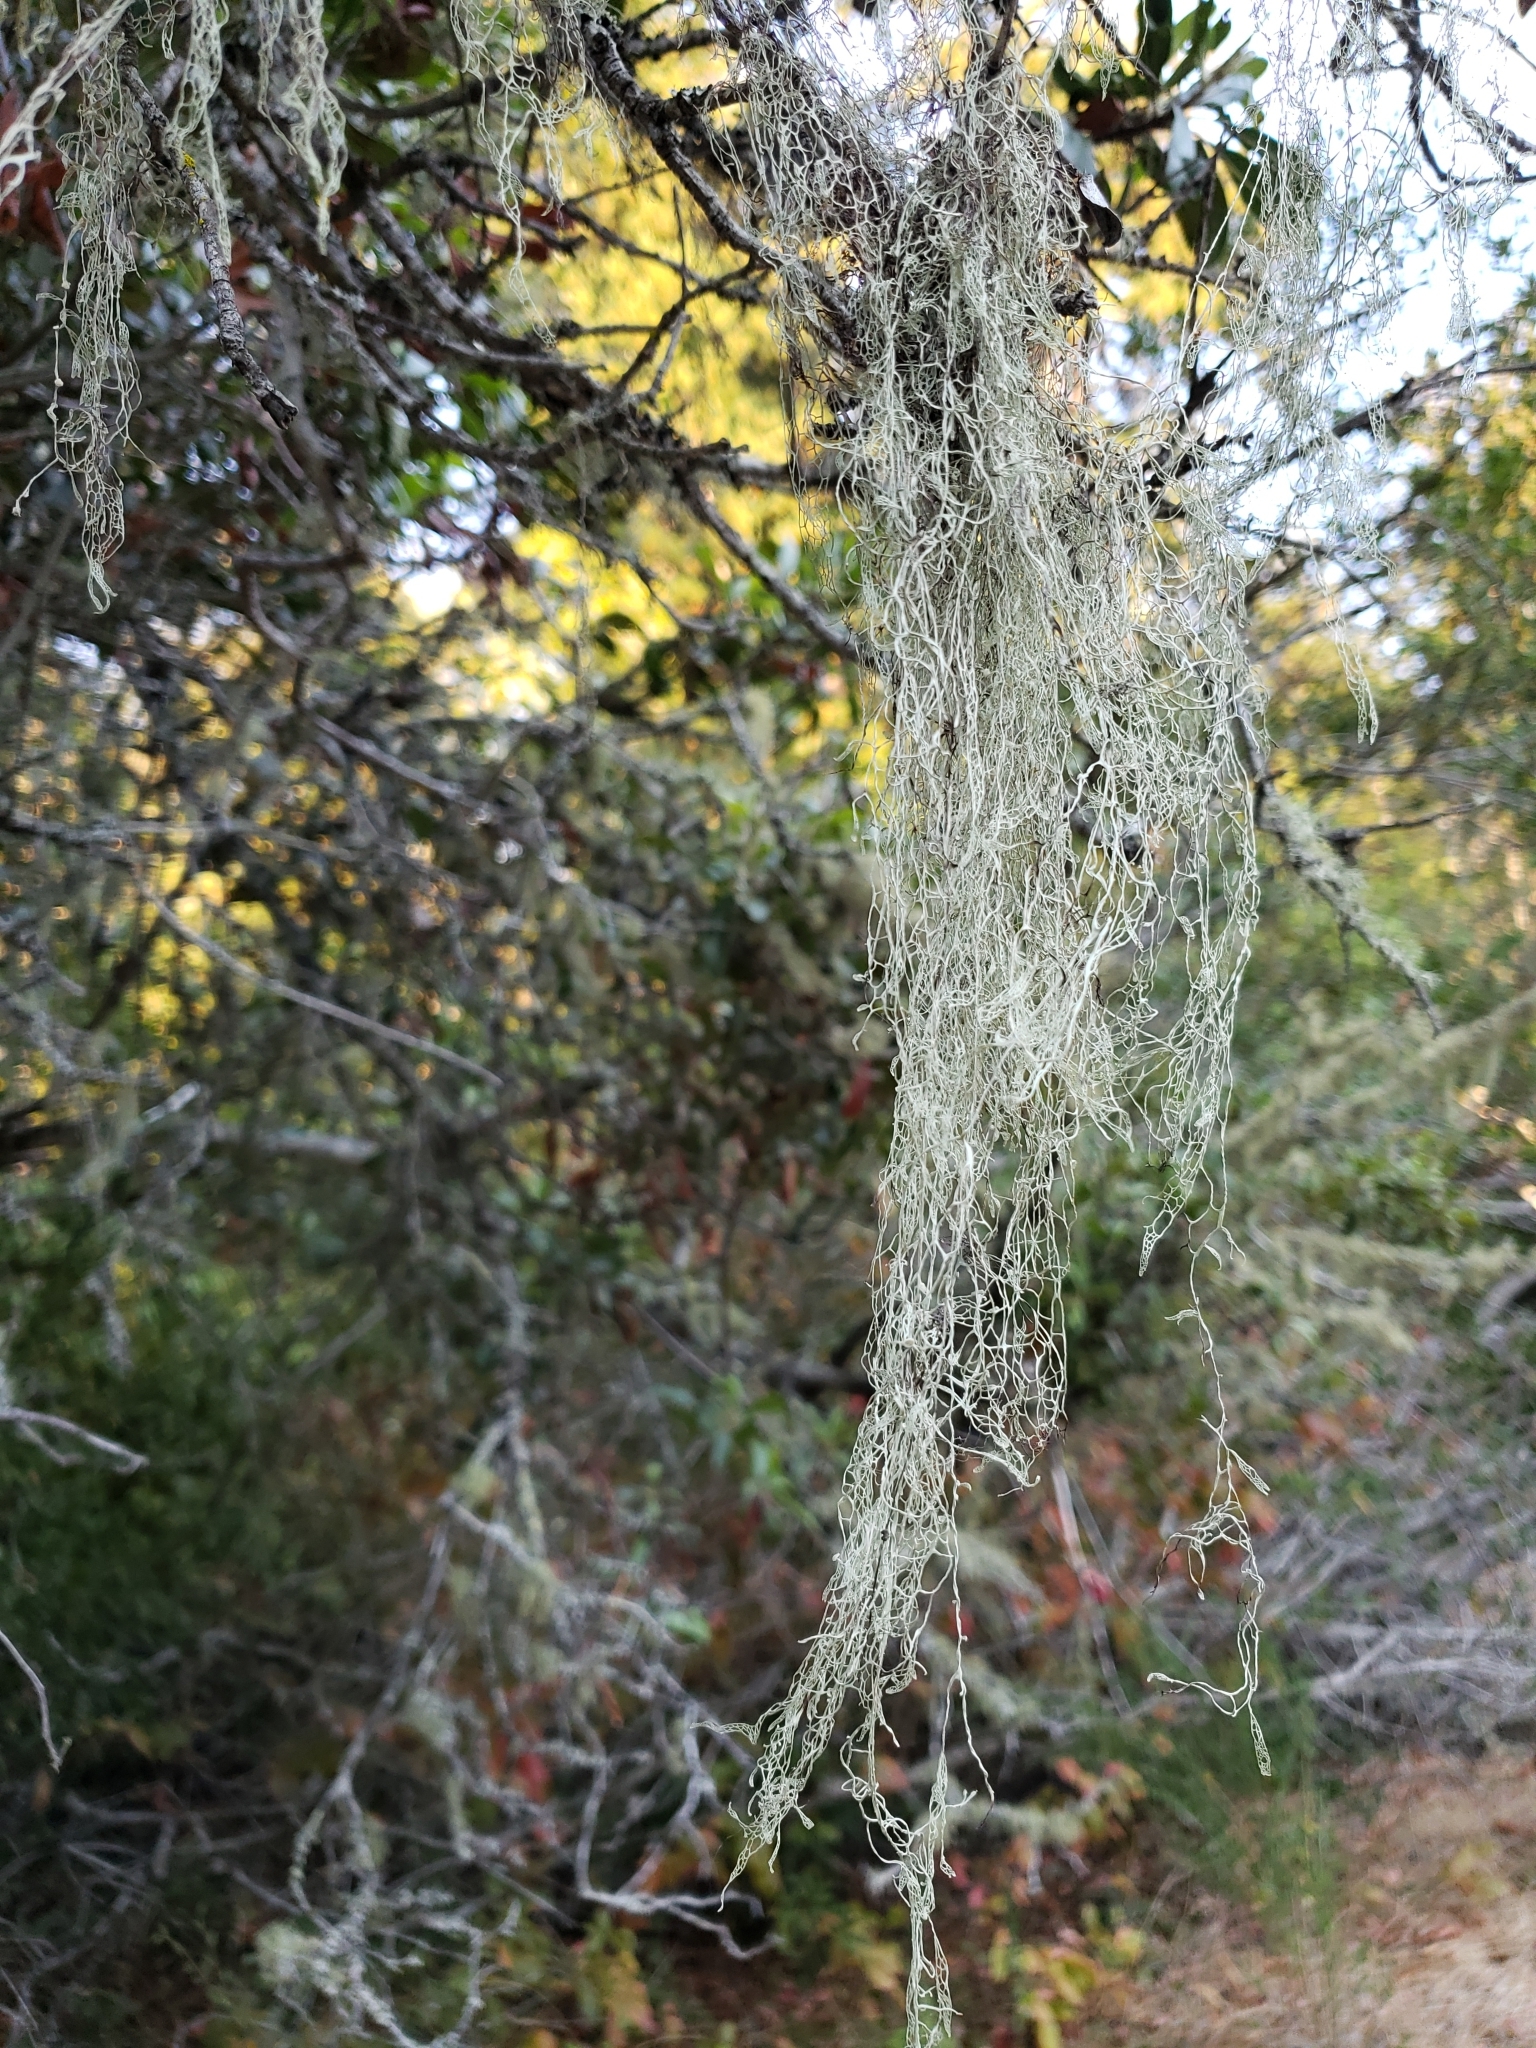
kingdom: Fungi
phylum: Ascomycota
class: Lecanoromycetes
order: Lecanorales
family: Ramalinaceae
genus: Ramalina
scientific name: Ramalina menziesii
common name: Lace lichen
